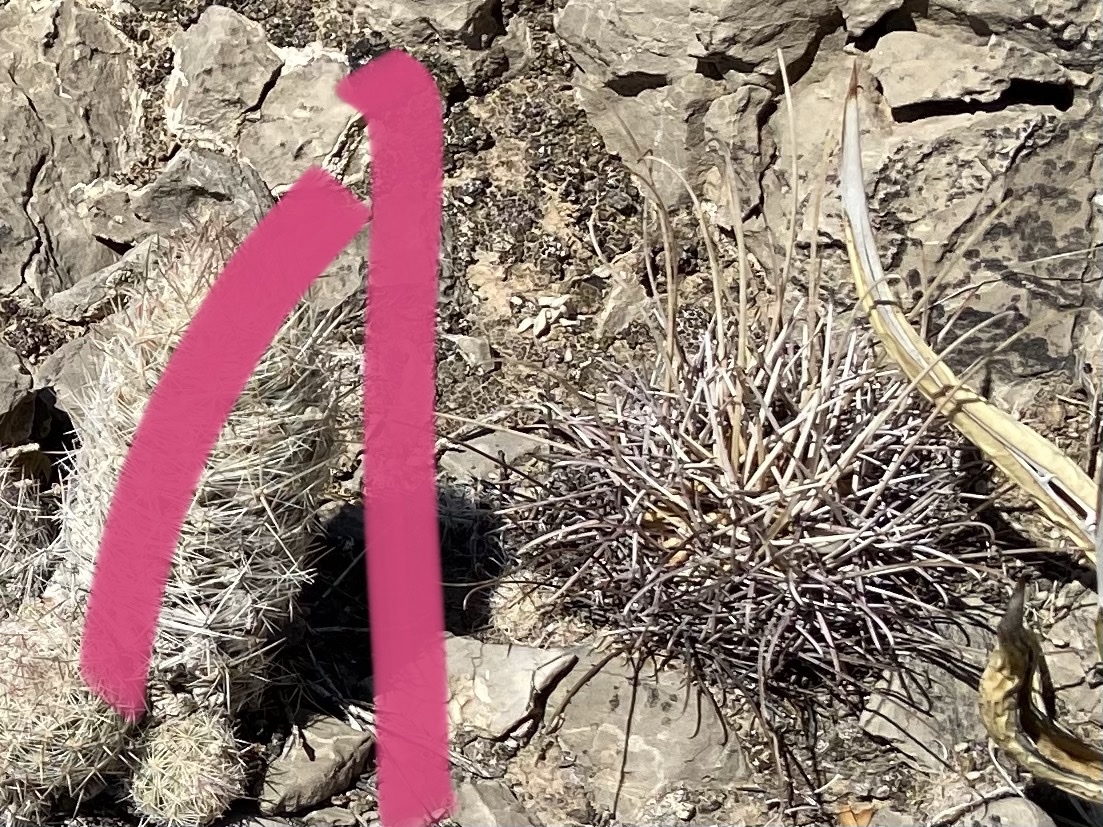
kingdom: Plantae
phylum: Tracheophyta
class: Magnoliopsida
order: Caryophyllales
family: Cactaceae
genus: Ferocactus
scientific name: Ferocactus uncinatus
